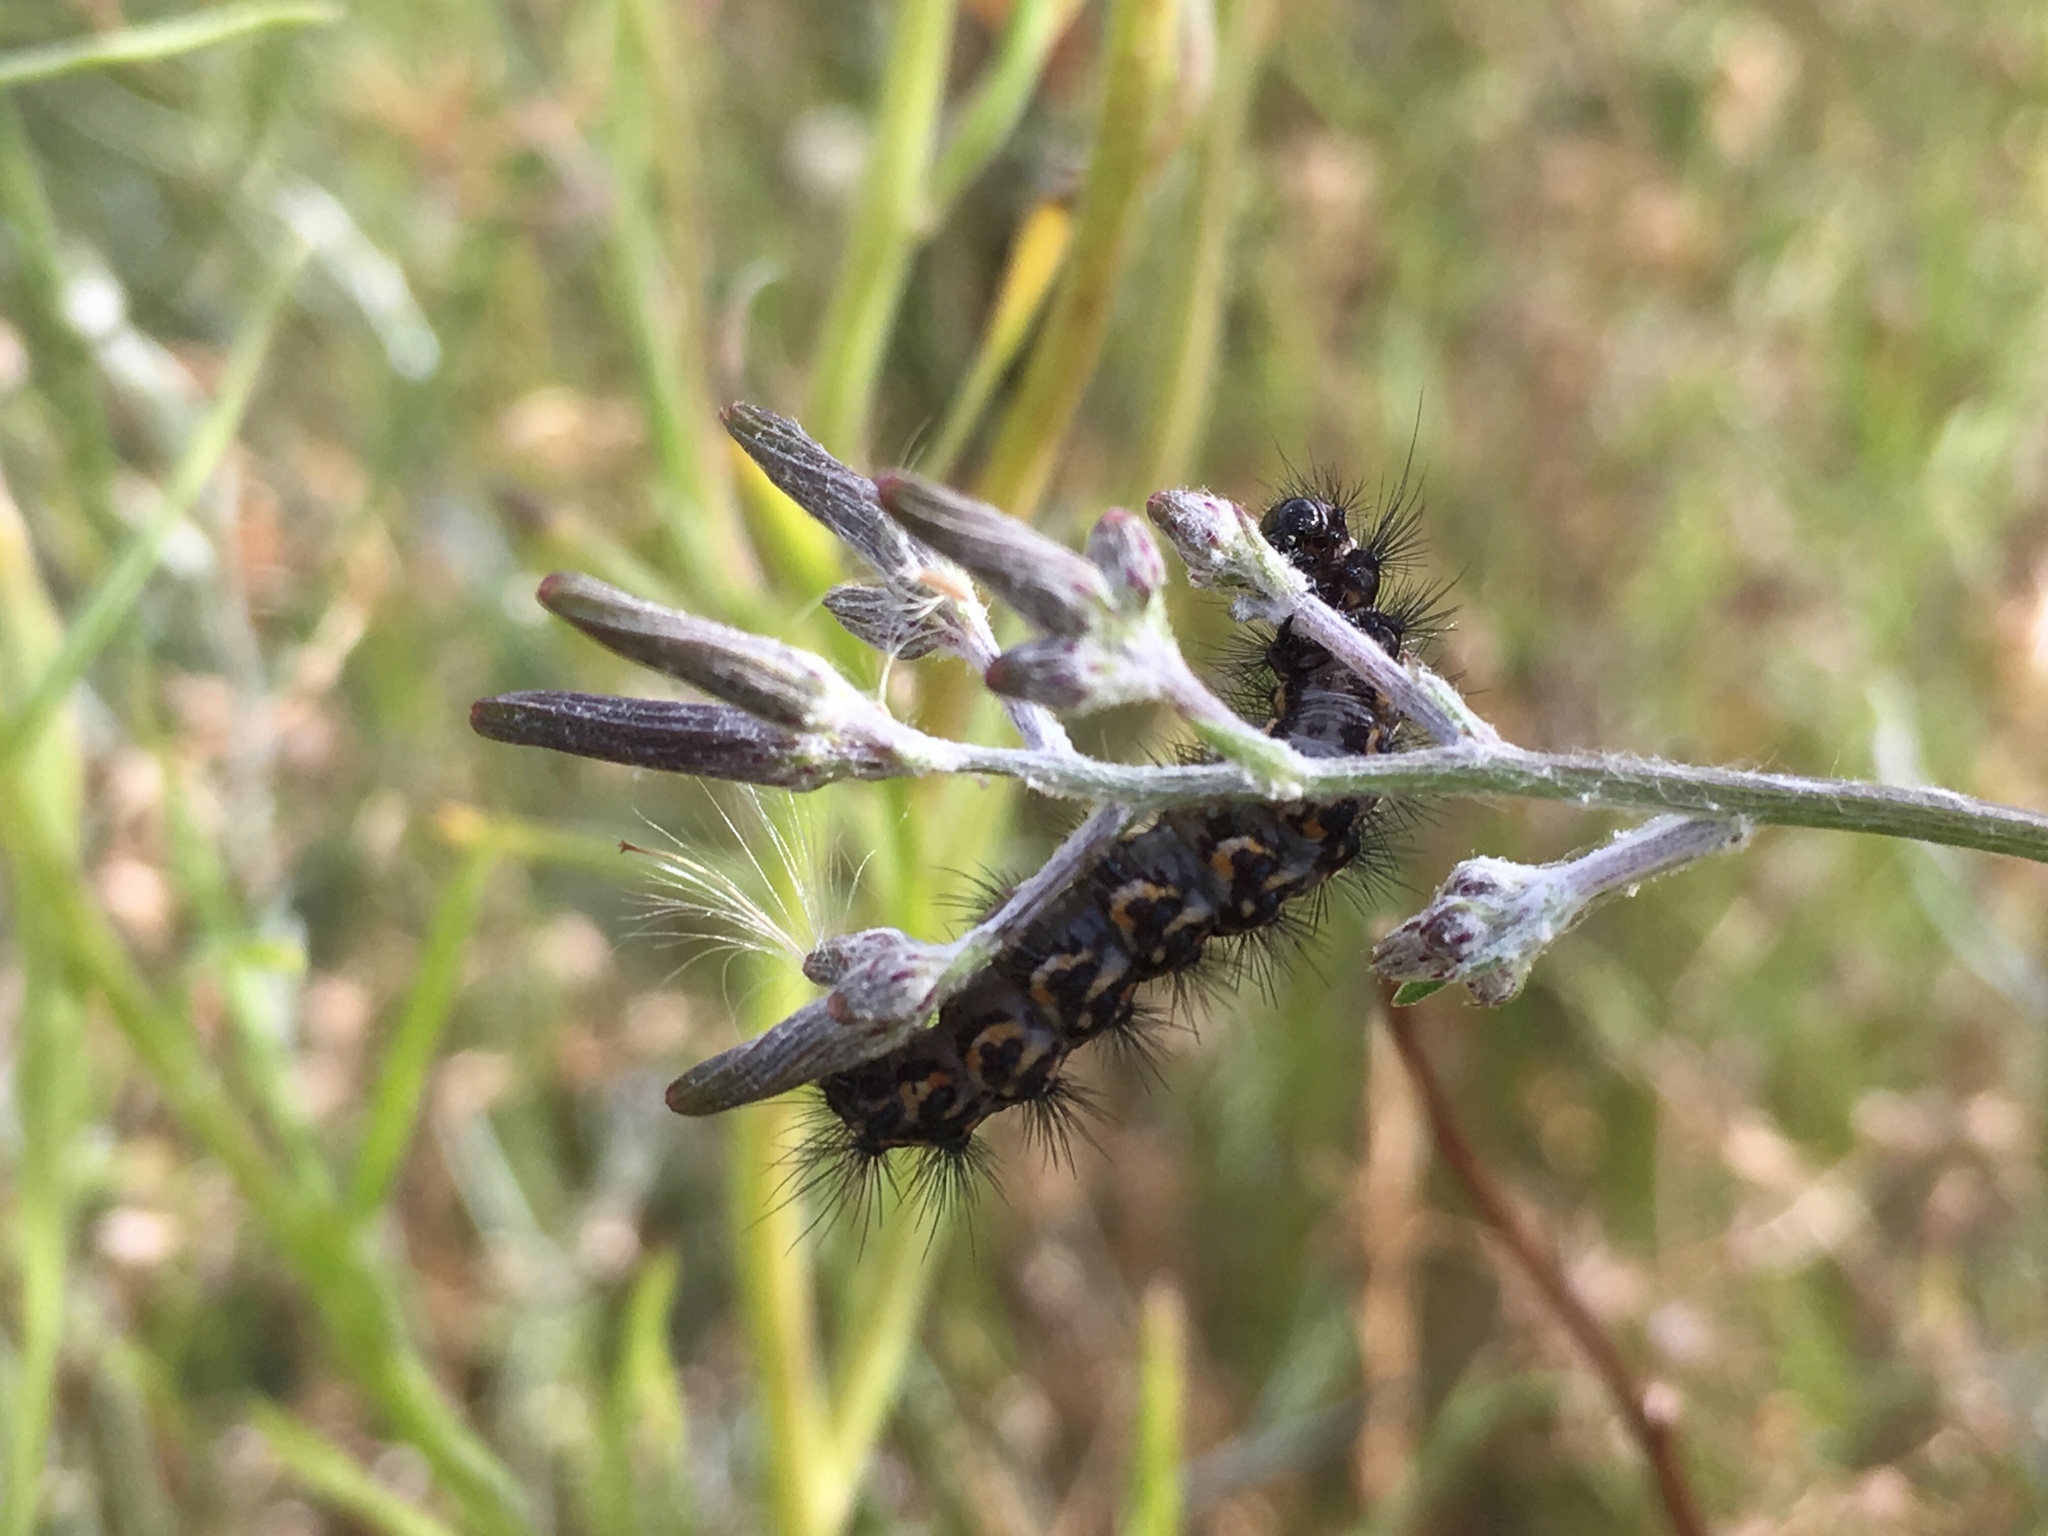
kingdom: Animalia
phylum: Arthropoda
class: Insecta
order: Lepidoptera
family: Erebidae
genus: Nyctemera
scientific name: Nyctemera annulatum
